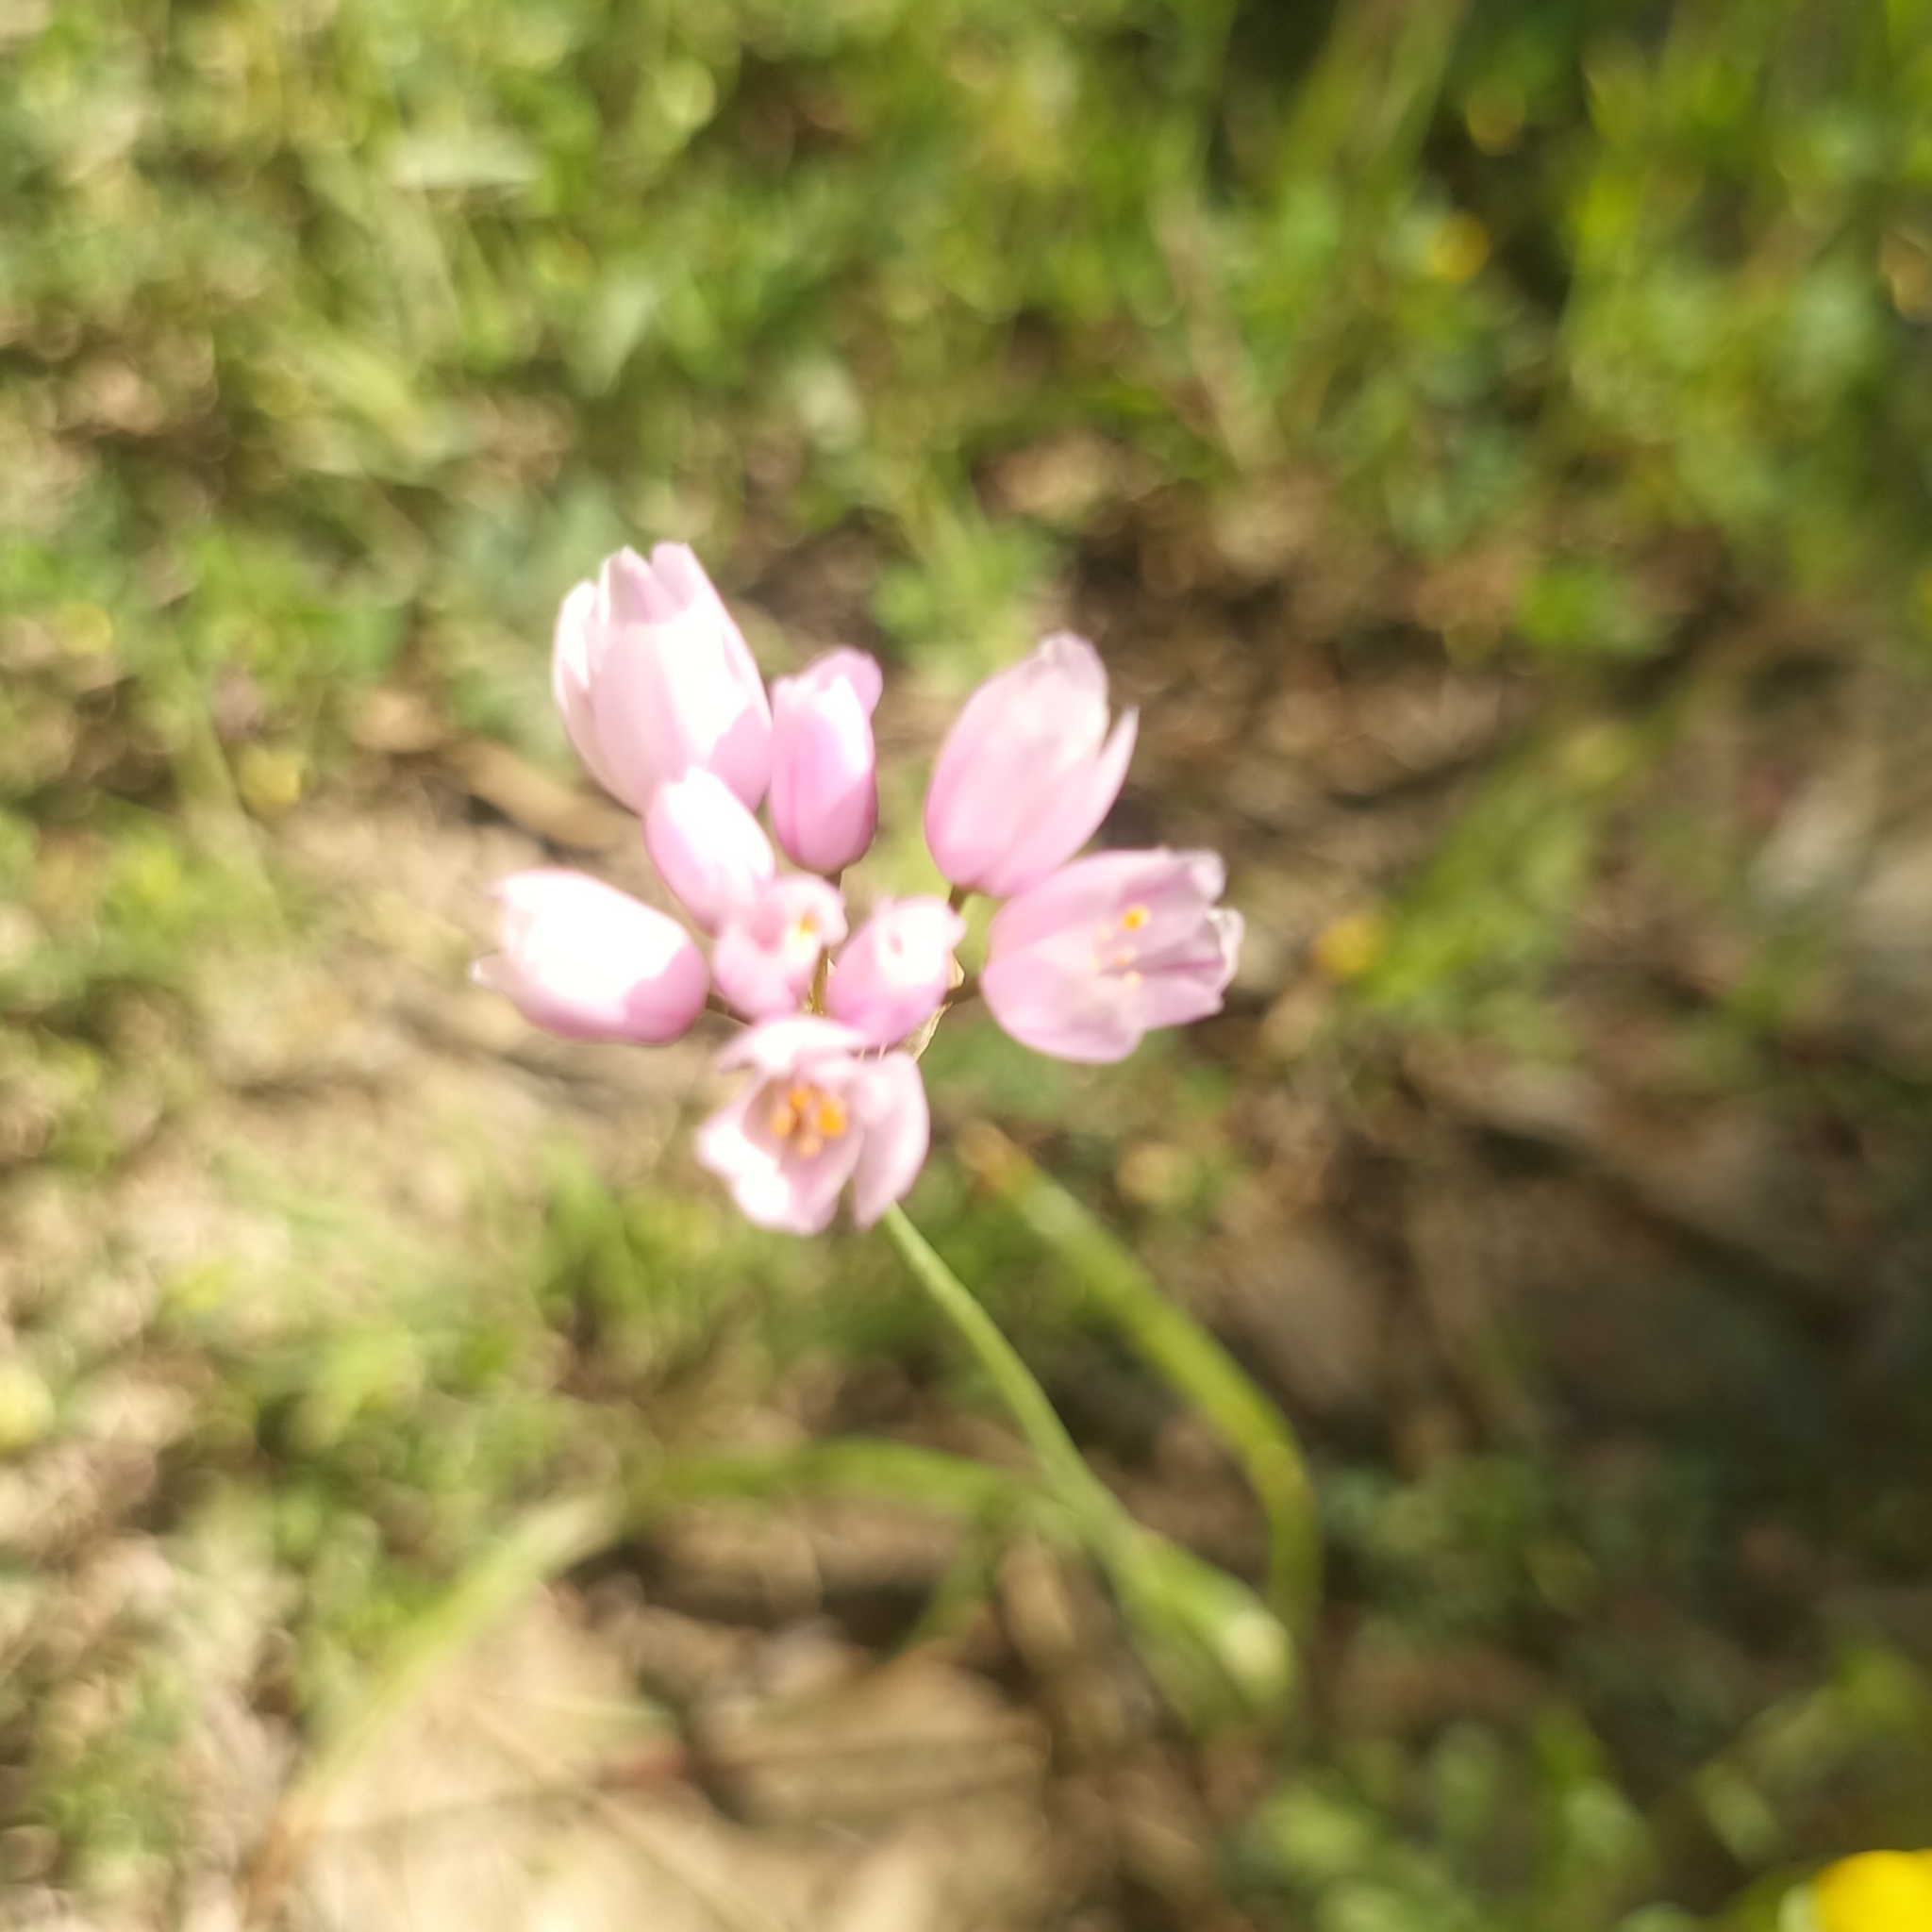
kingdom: Plantae
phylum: Tracheophyta
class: Liliopsida
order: Asparagales
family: Amaryllidaceae
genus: Allium
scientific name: Allium roseum
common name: Rosy garlic
